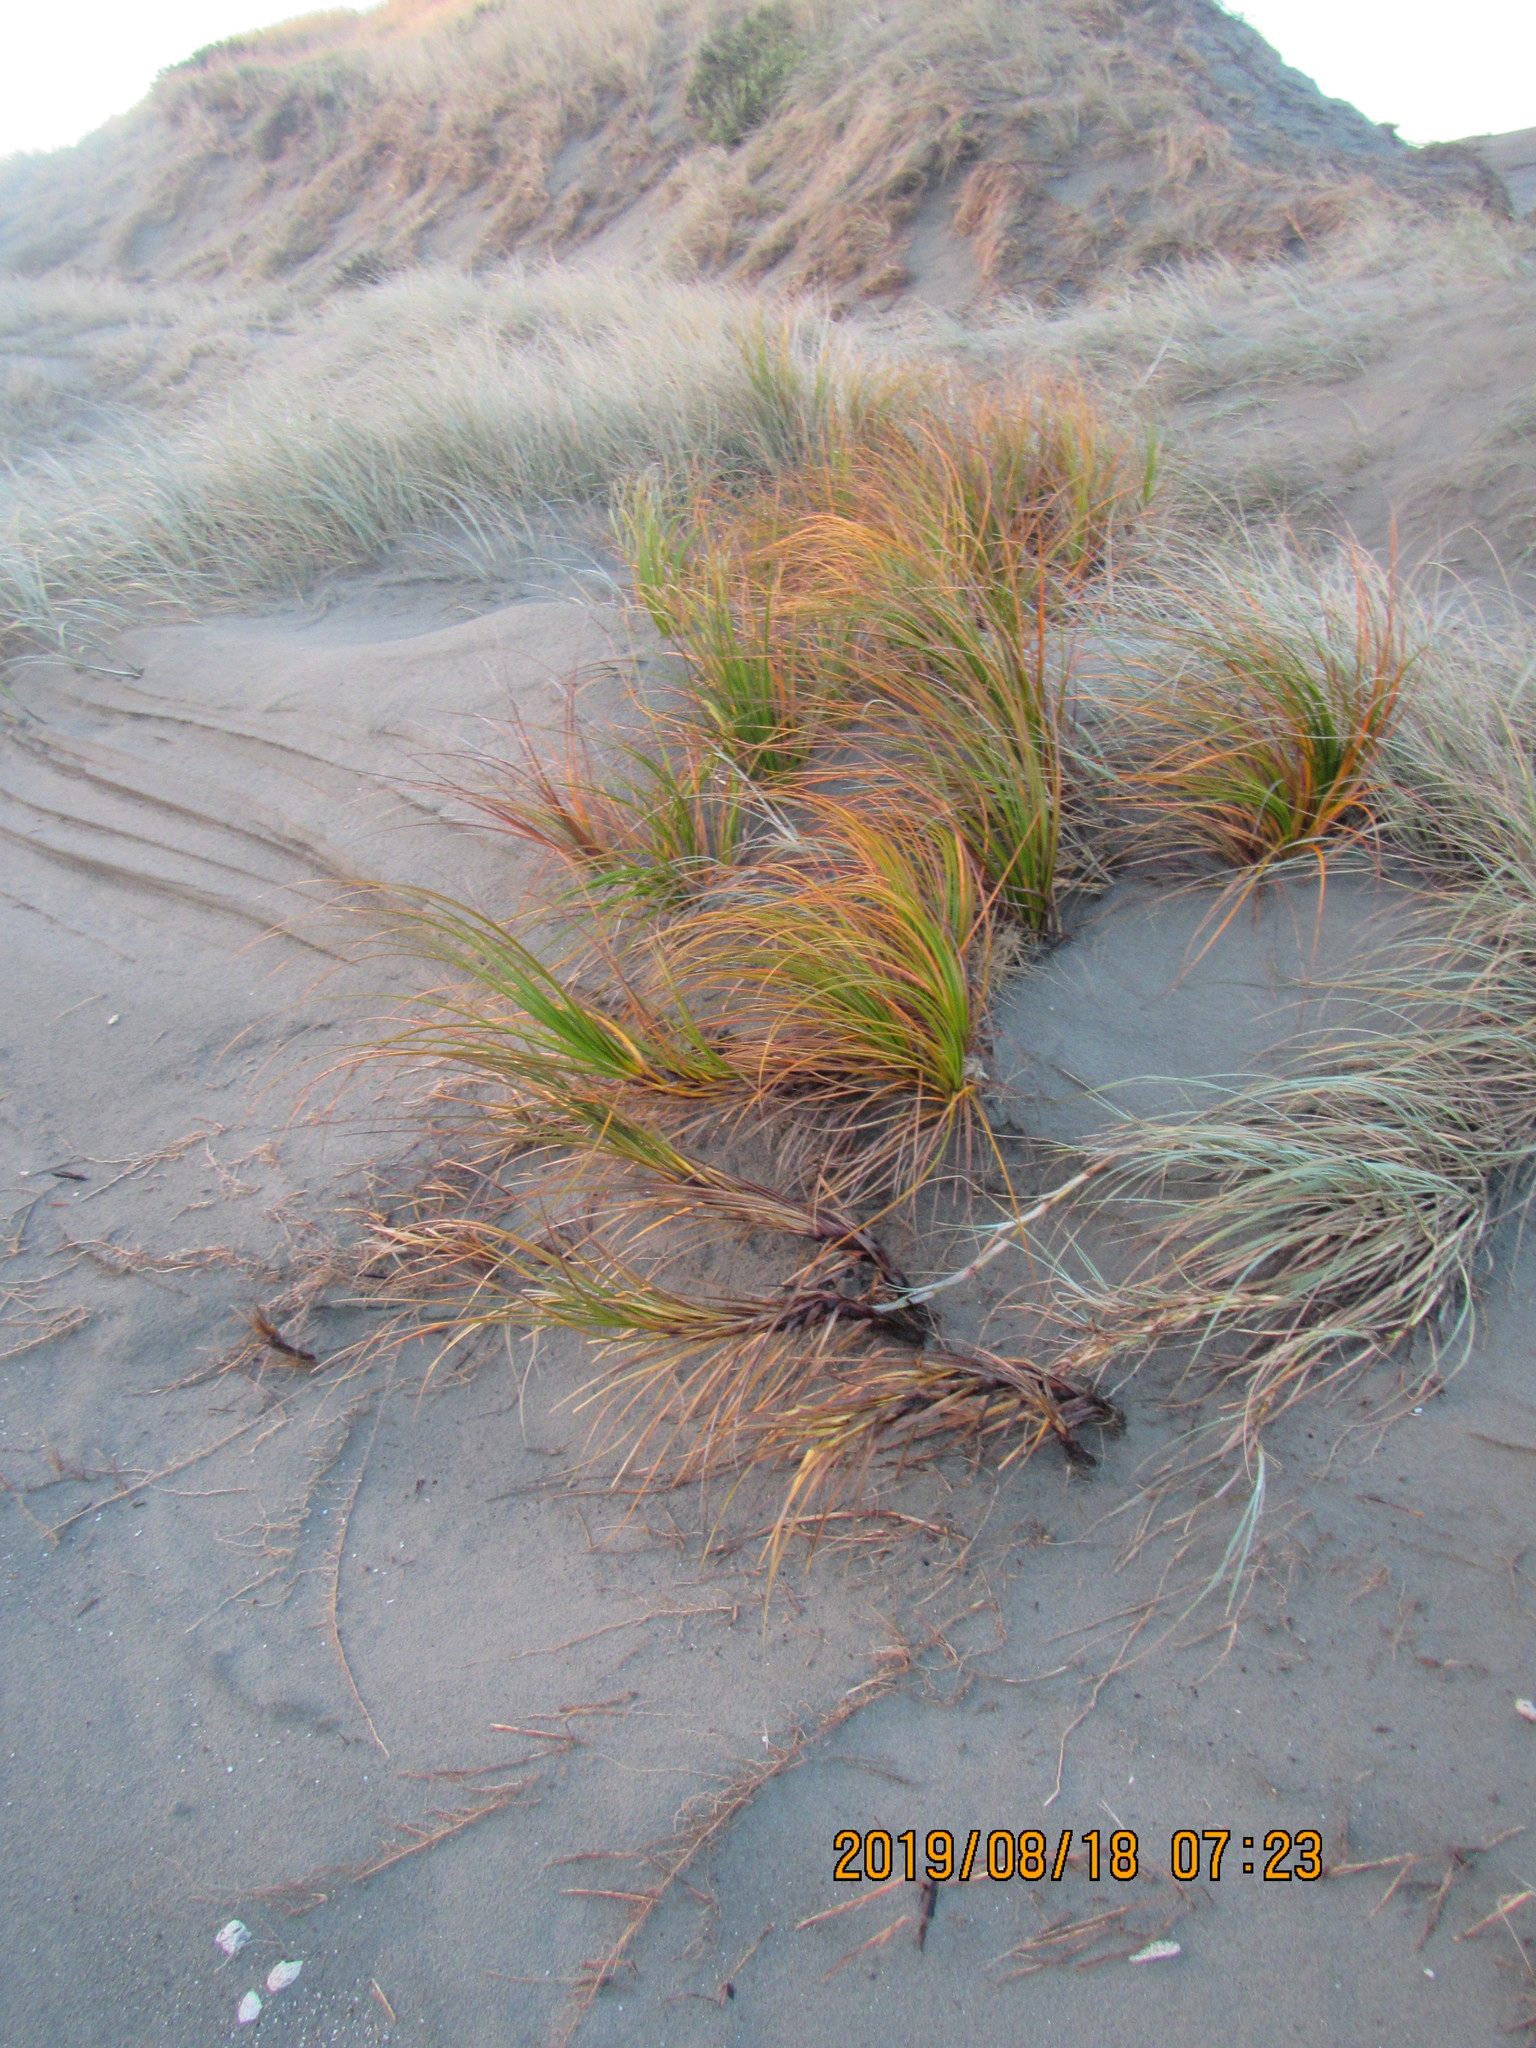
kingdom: Plantae
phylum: Tracheophyta
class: Liliopsida
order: Poales
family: Cyperaceae
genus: Ficinia
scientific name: Ficinia spiralis
